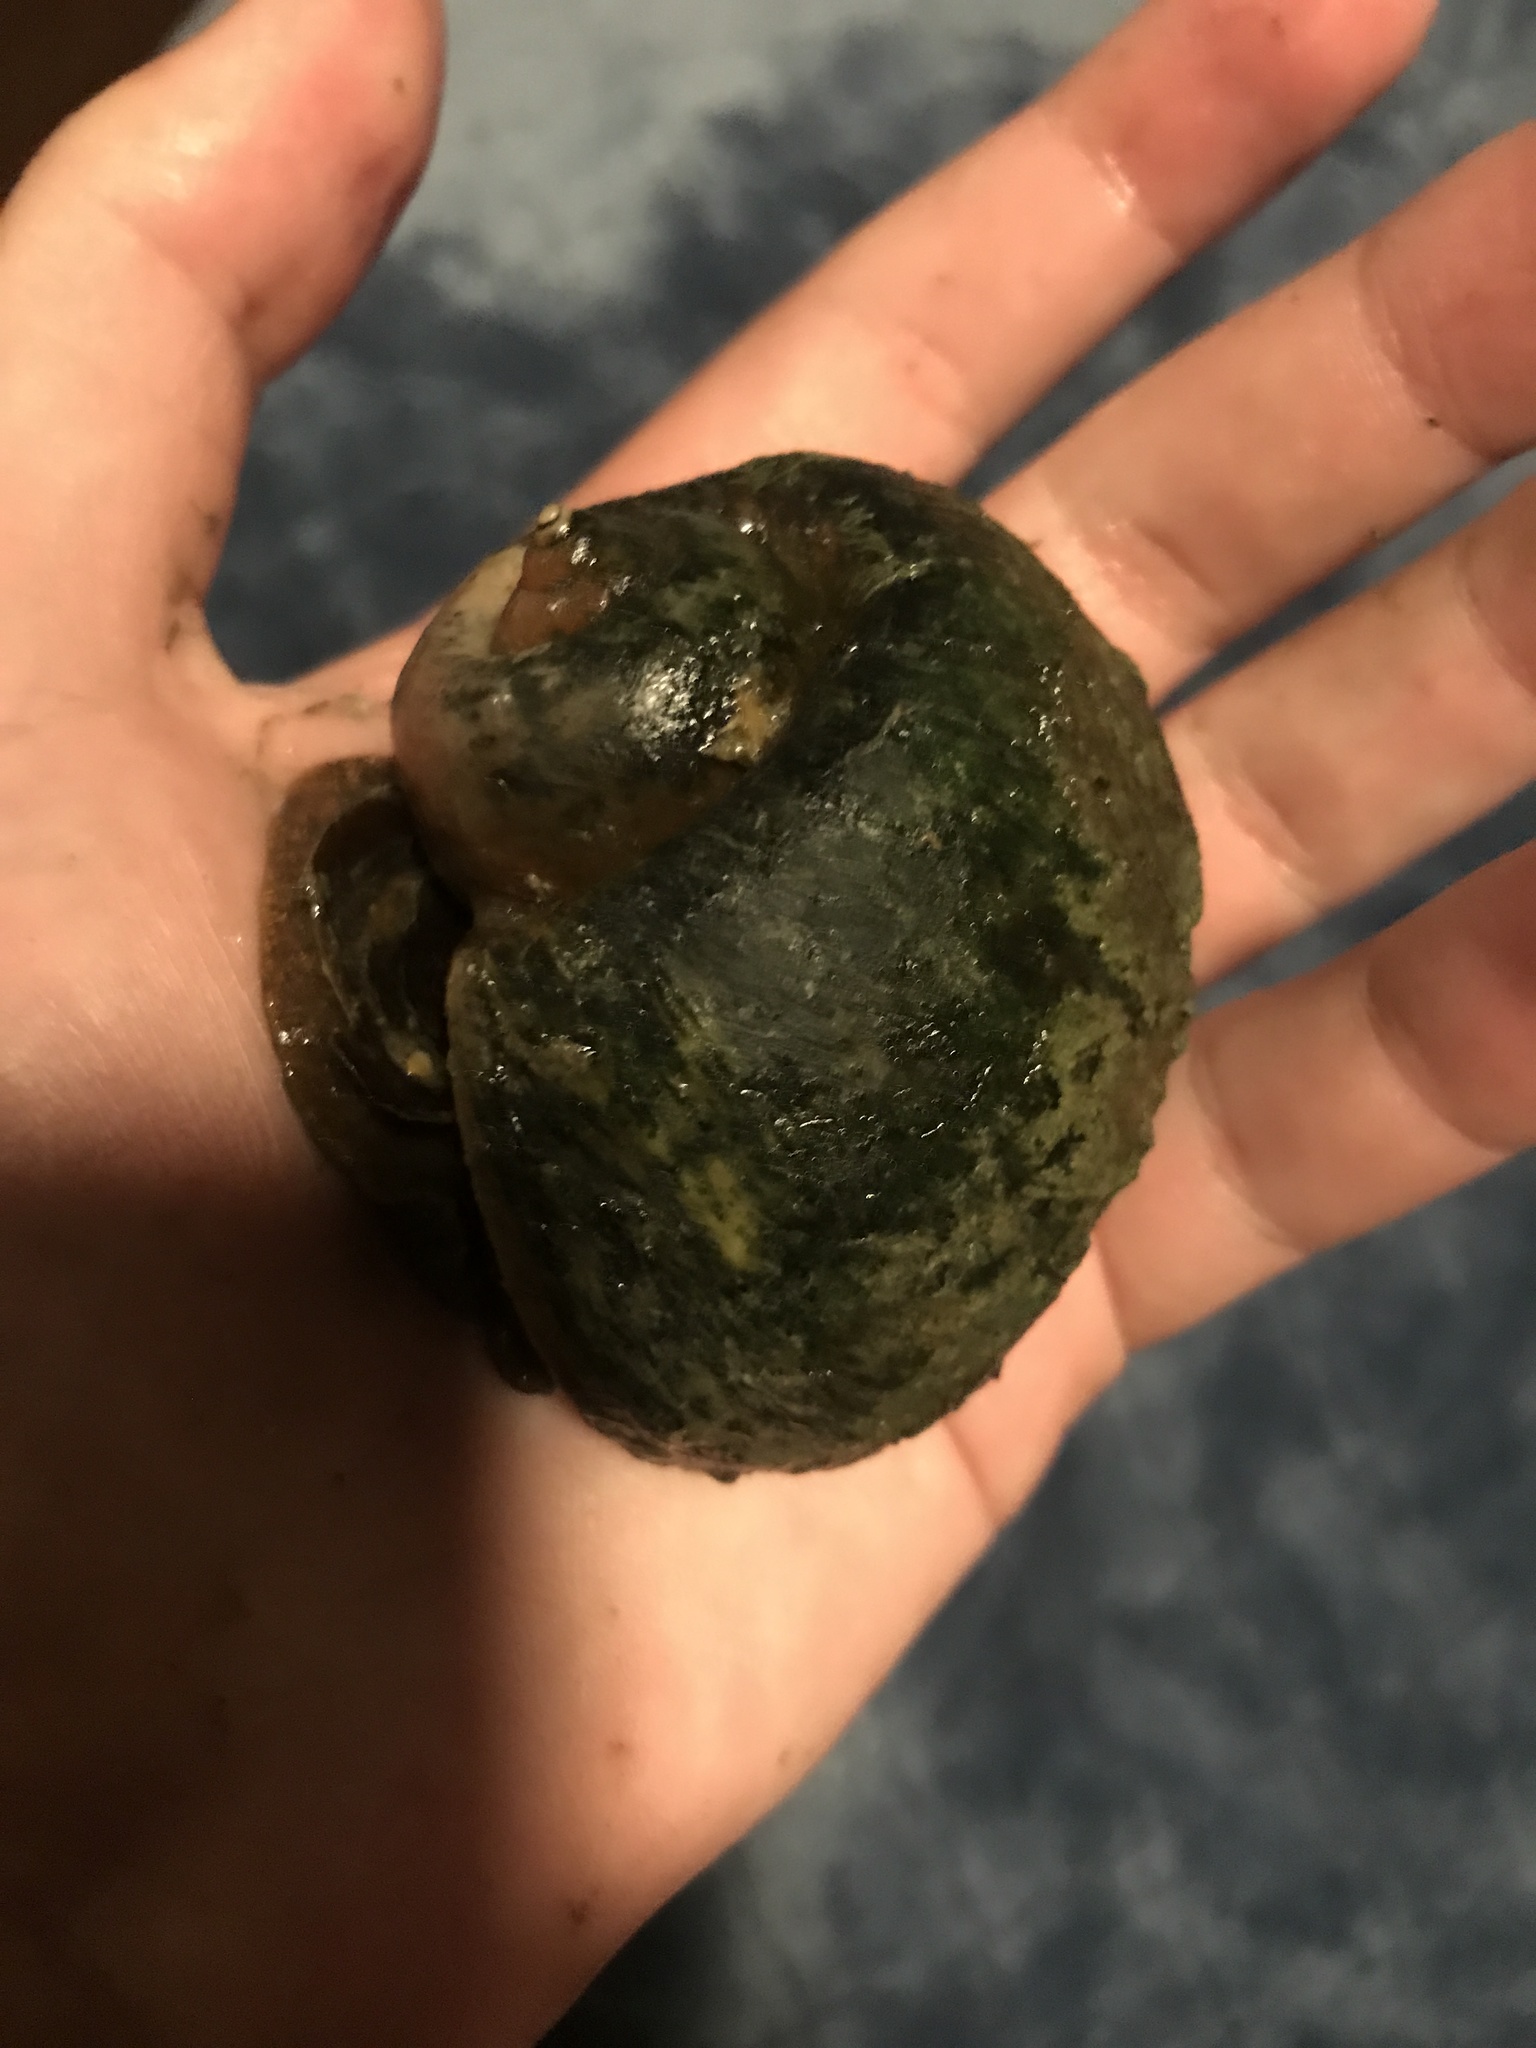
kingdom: Animalia
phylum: Mollusca
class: Gastropoda
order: Architaenioglossa
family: Ampullariidae
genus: Pomacea
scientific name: Pomacea canaliculata
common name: Channeled applesnail
